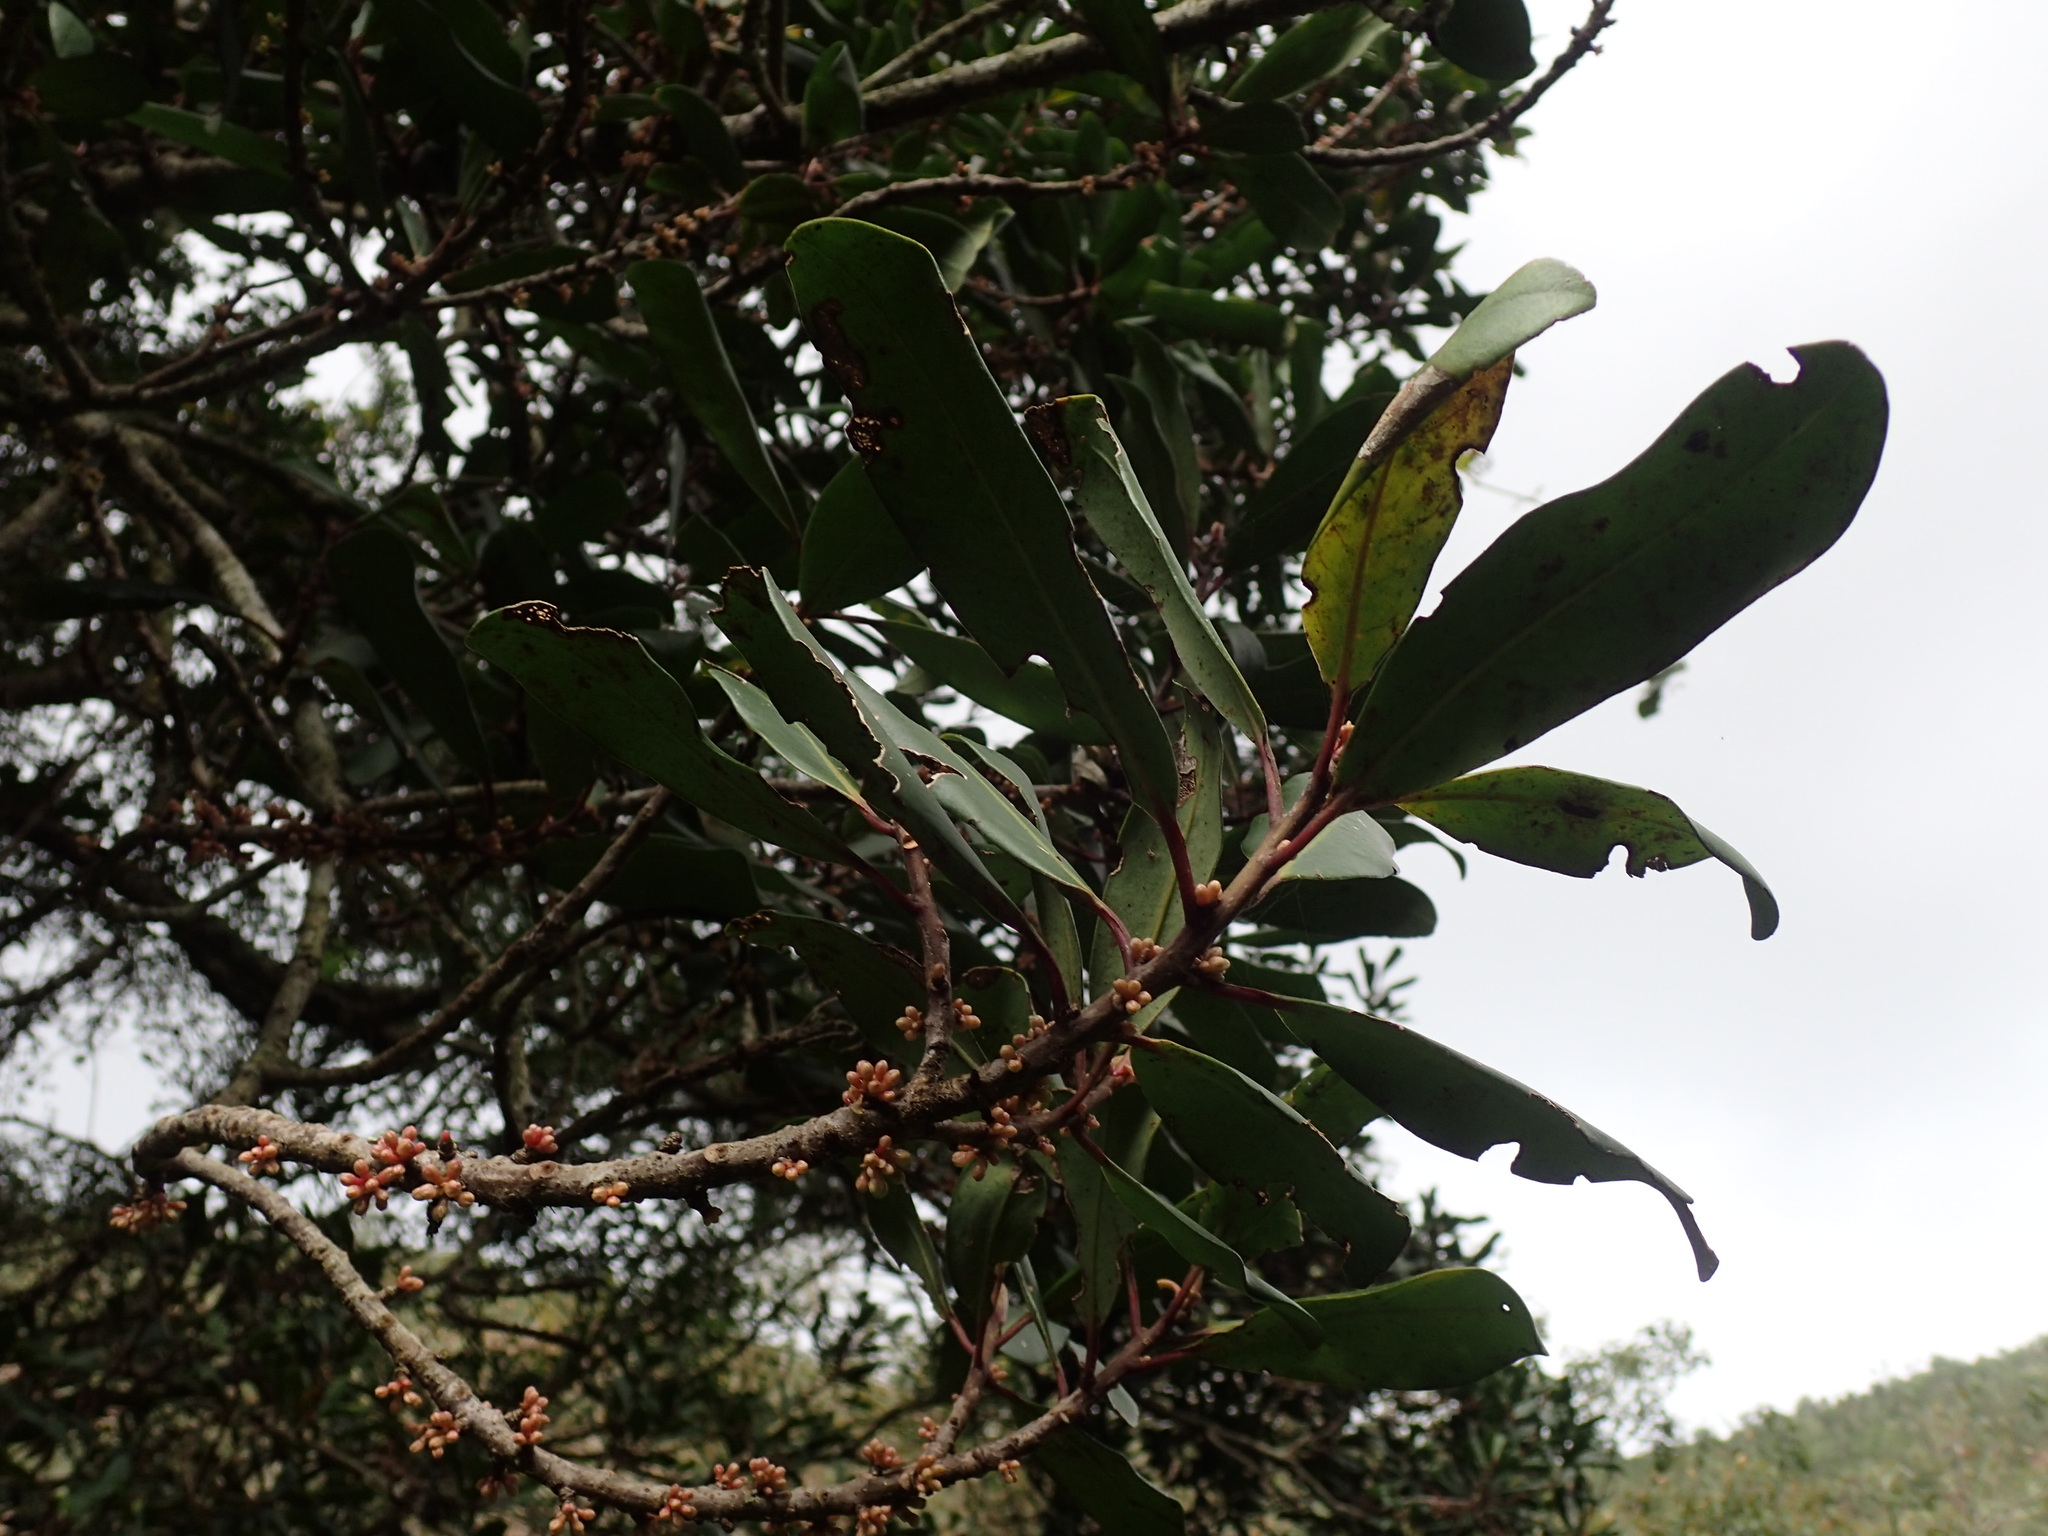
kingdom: Plantae
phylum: Tracheophyta
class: Magnoliopsida
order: Ericales
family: Primulaceae
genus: Myrsine
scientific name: Myrsine melanophloeos
